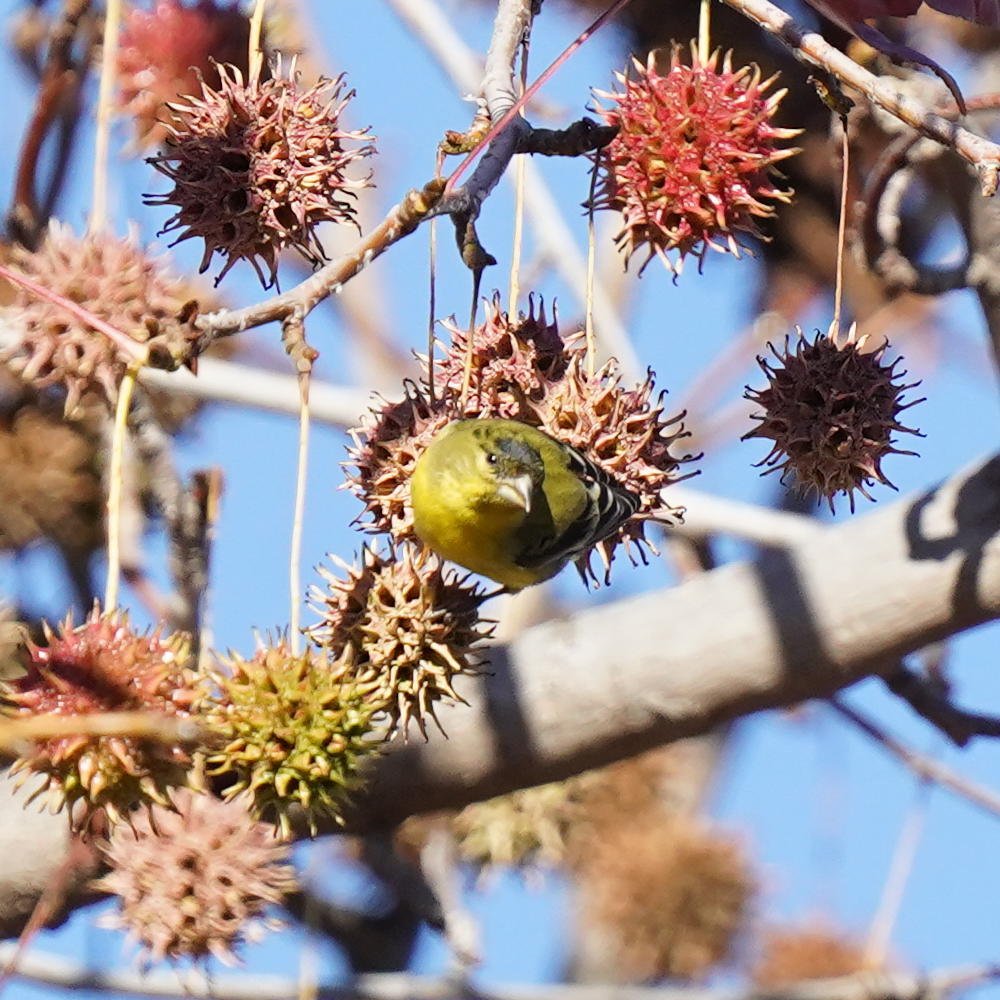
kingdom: Animalia
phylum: Chordata
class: Aves
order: Passeriformes
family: Fringillidae
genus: Spinus
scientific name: Spinus psaltria
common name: Lesser goldfinch
